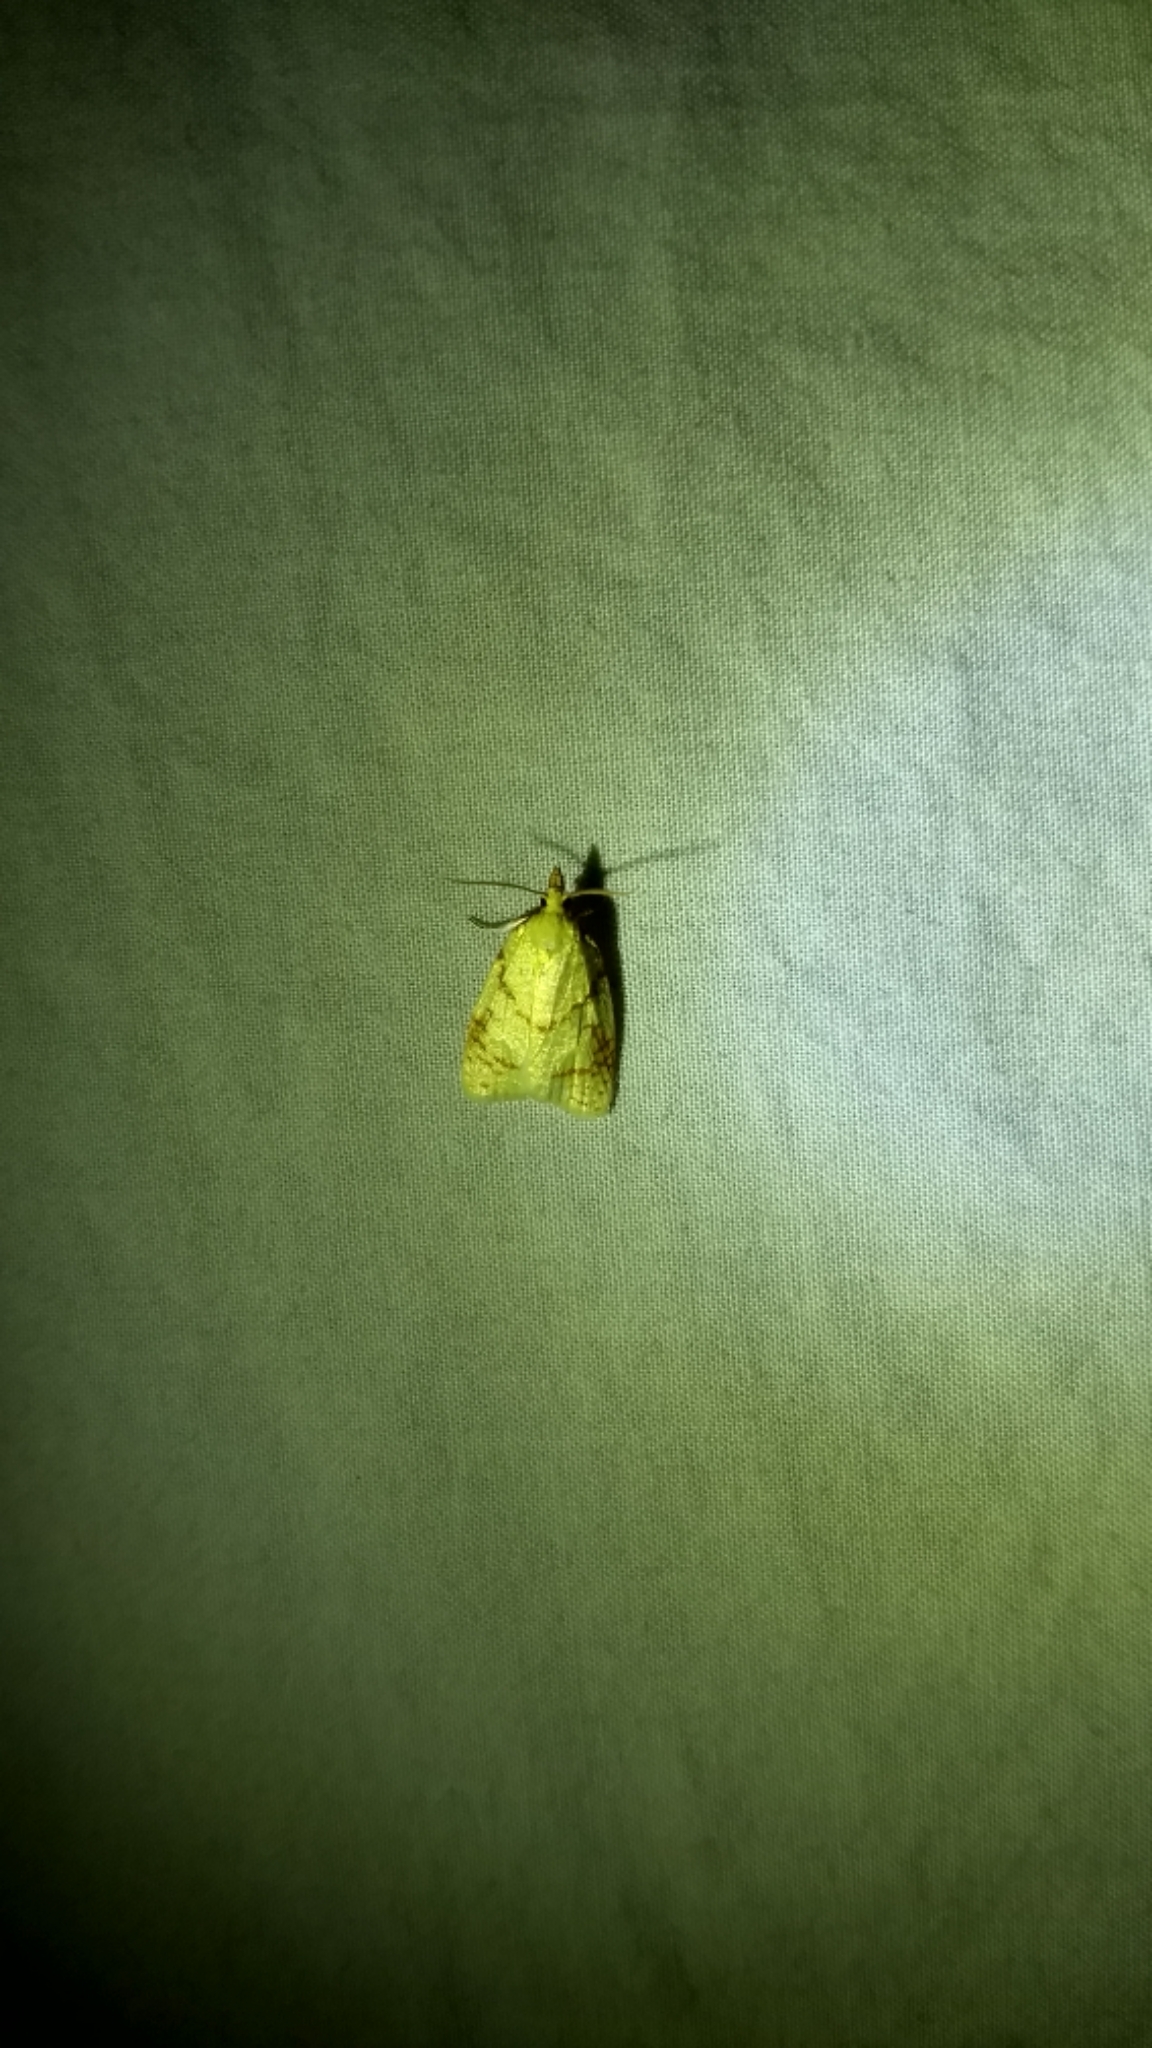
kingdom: Animalia
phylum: Arthropoda
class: Insecta
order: Lepidoptera
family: Tortricidae
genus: Cenopis
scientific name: Cenopis pettitana
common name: Maple-basswood leafroller moth
